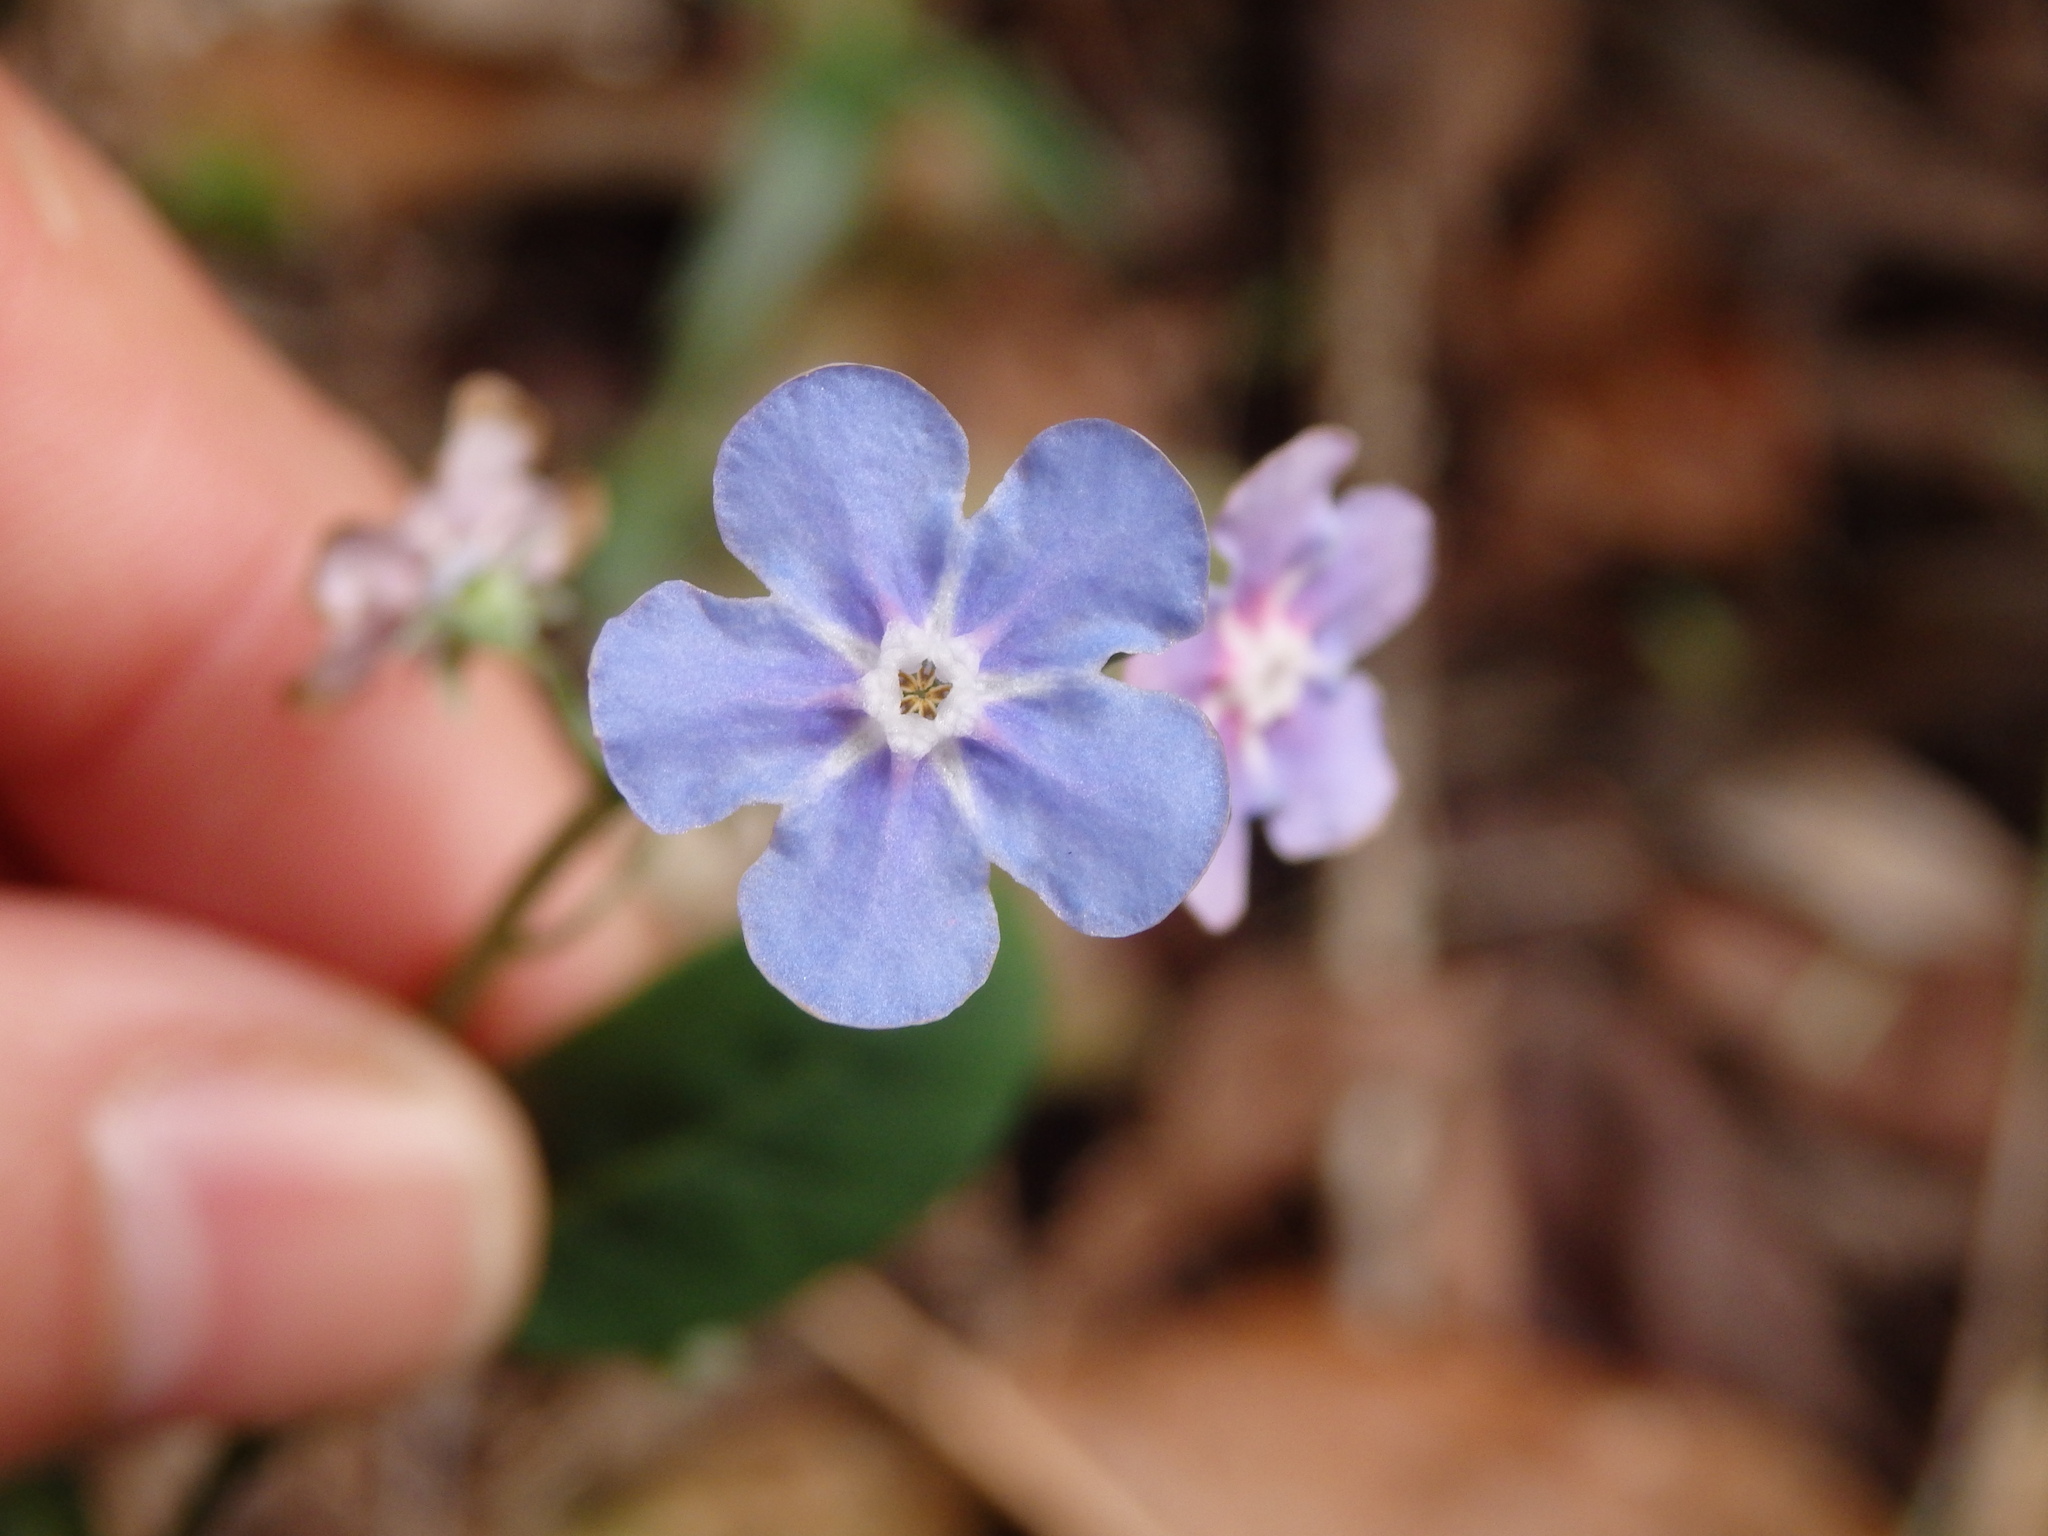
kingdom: Plantae
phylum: Tracheophyta
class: Magnoliopsida
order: Boraginales
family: Boraginaceae
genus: Omphalodes
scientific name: Omphalodes nitida
